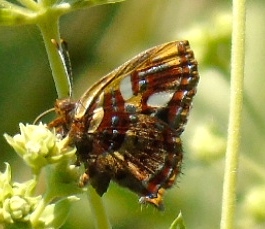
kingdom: Animalia
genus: Anteros
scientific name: Anteros carausius
